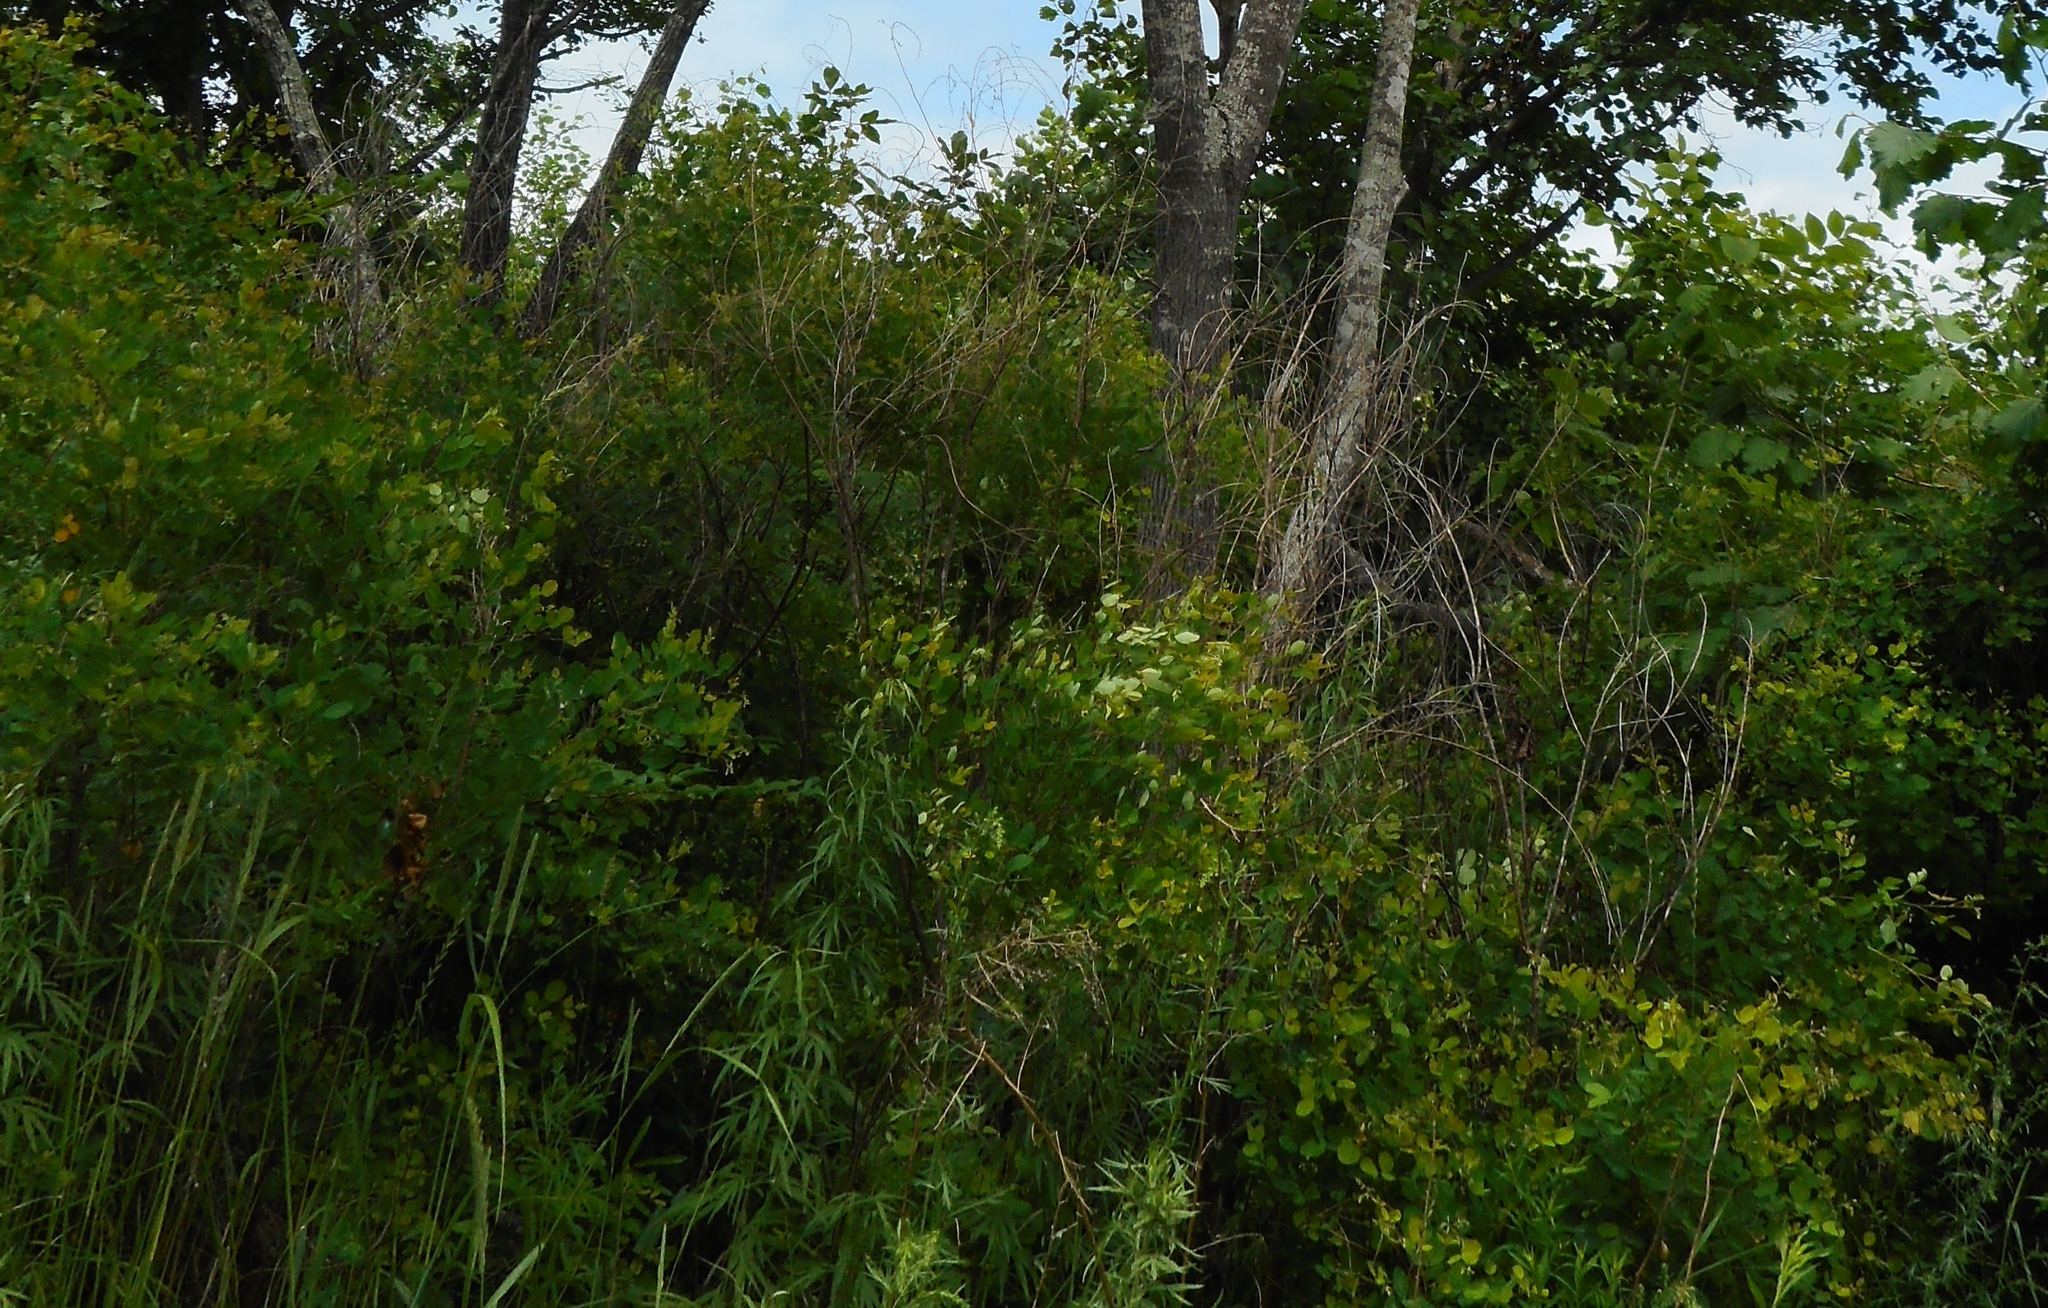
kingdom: Plantae
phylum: Tracheophyta
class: Magnoliopsida
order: Fabales
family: Fabaceae
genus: Lespedeza
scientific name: Lespedeza bicolor
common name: Shrub lespedeza
